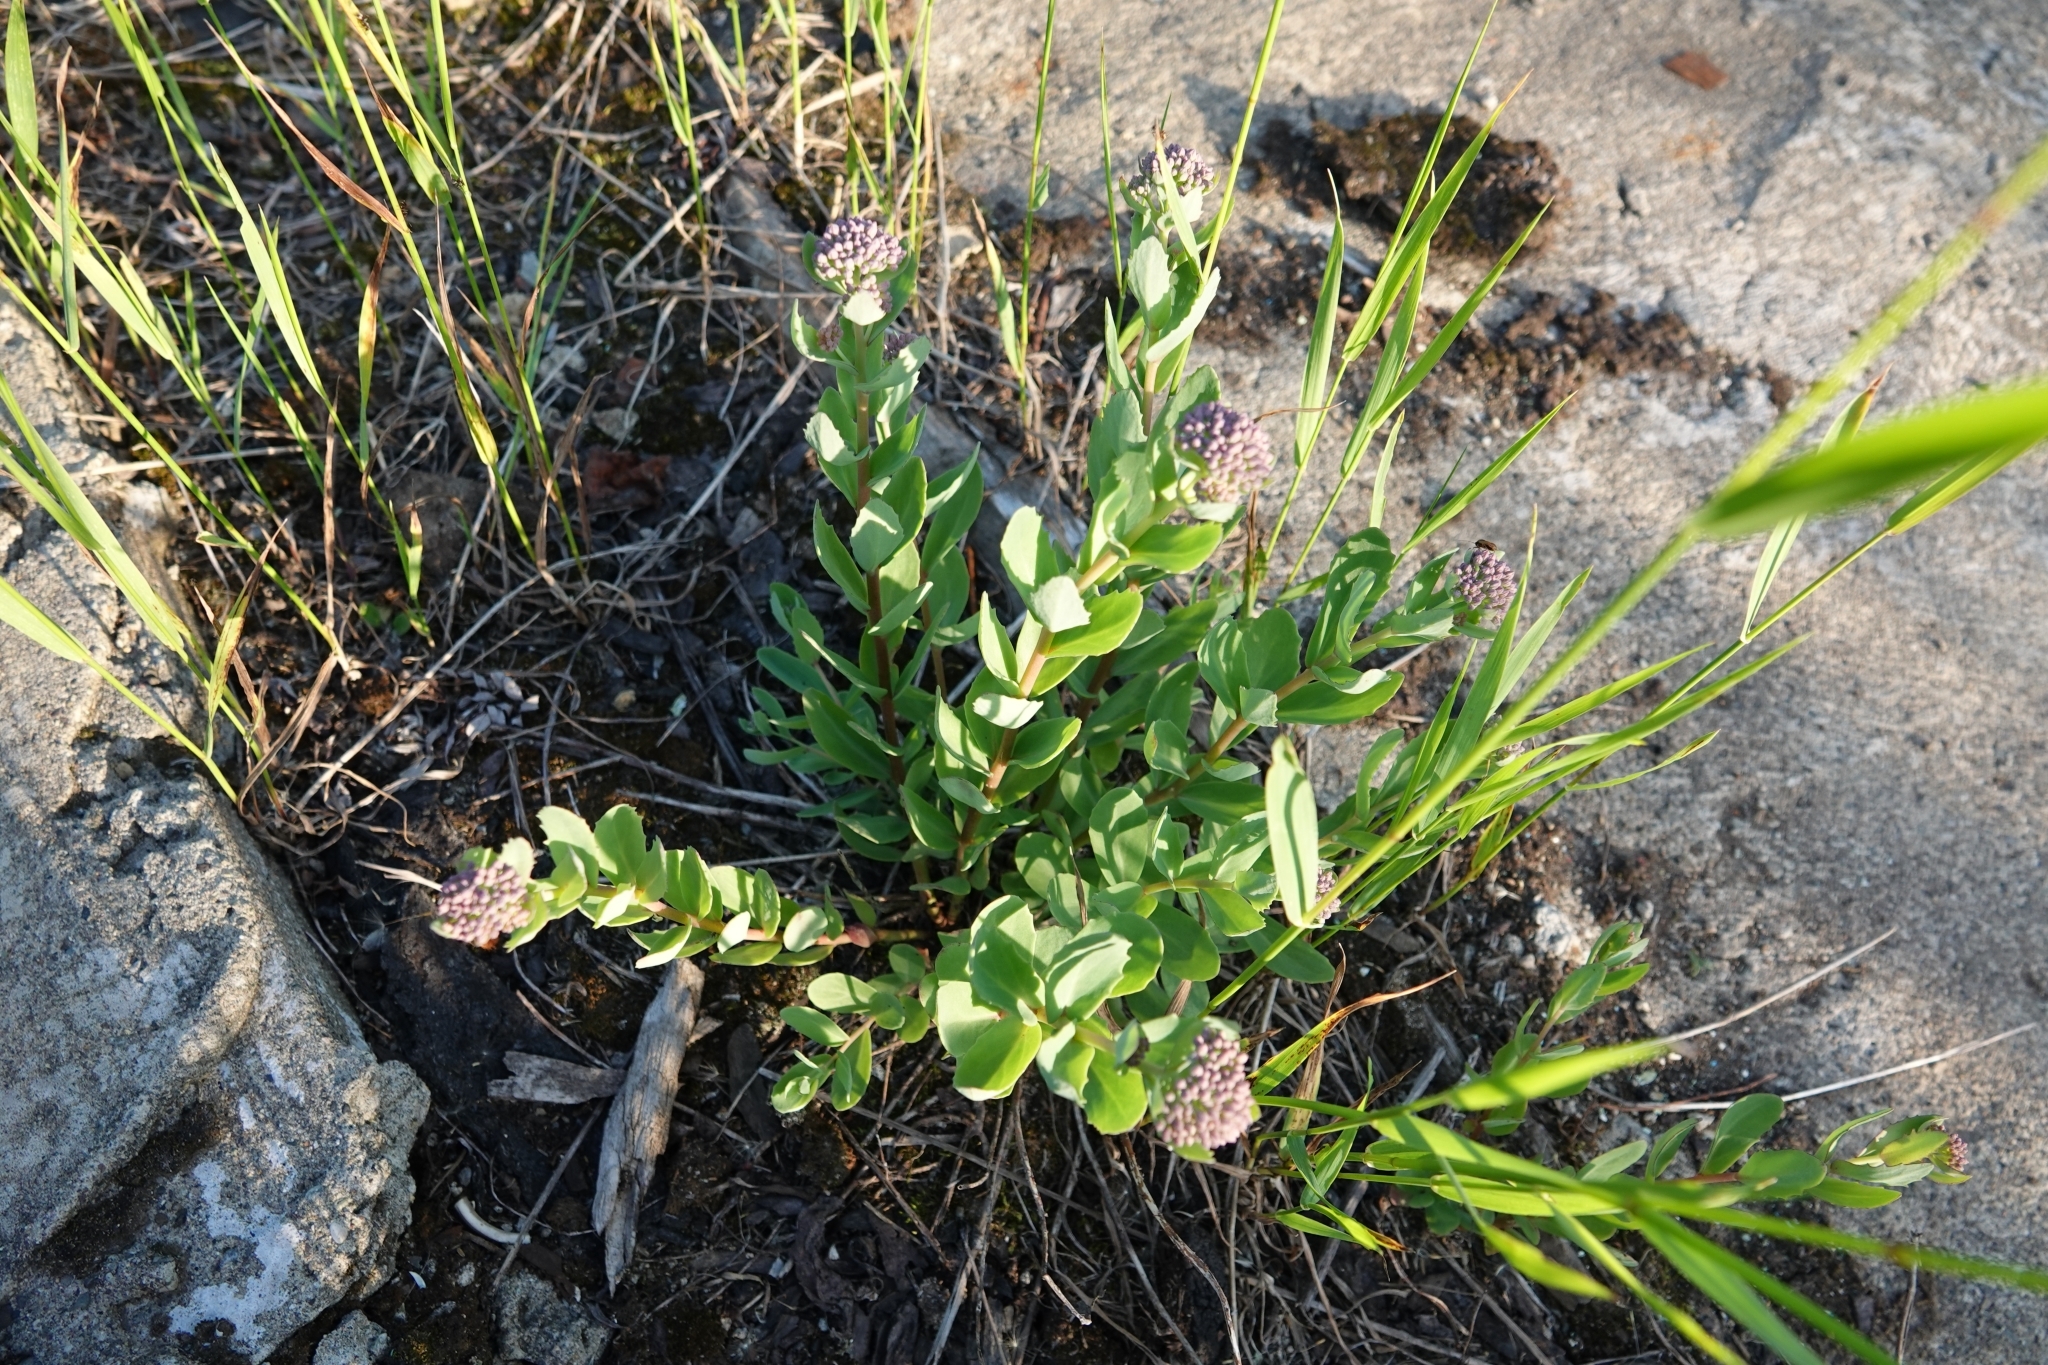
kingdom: Plantae
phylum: Tracheophyta
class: Magnoliopsida
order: Saxifragales
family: Crassulaceae
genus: Hylotelephium
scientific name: Hylotelephium telephium
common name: Live-forever
